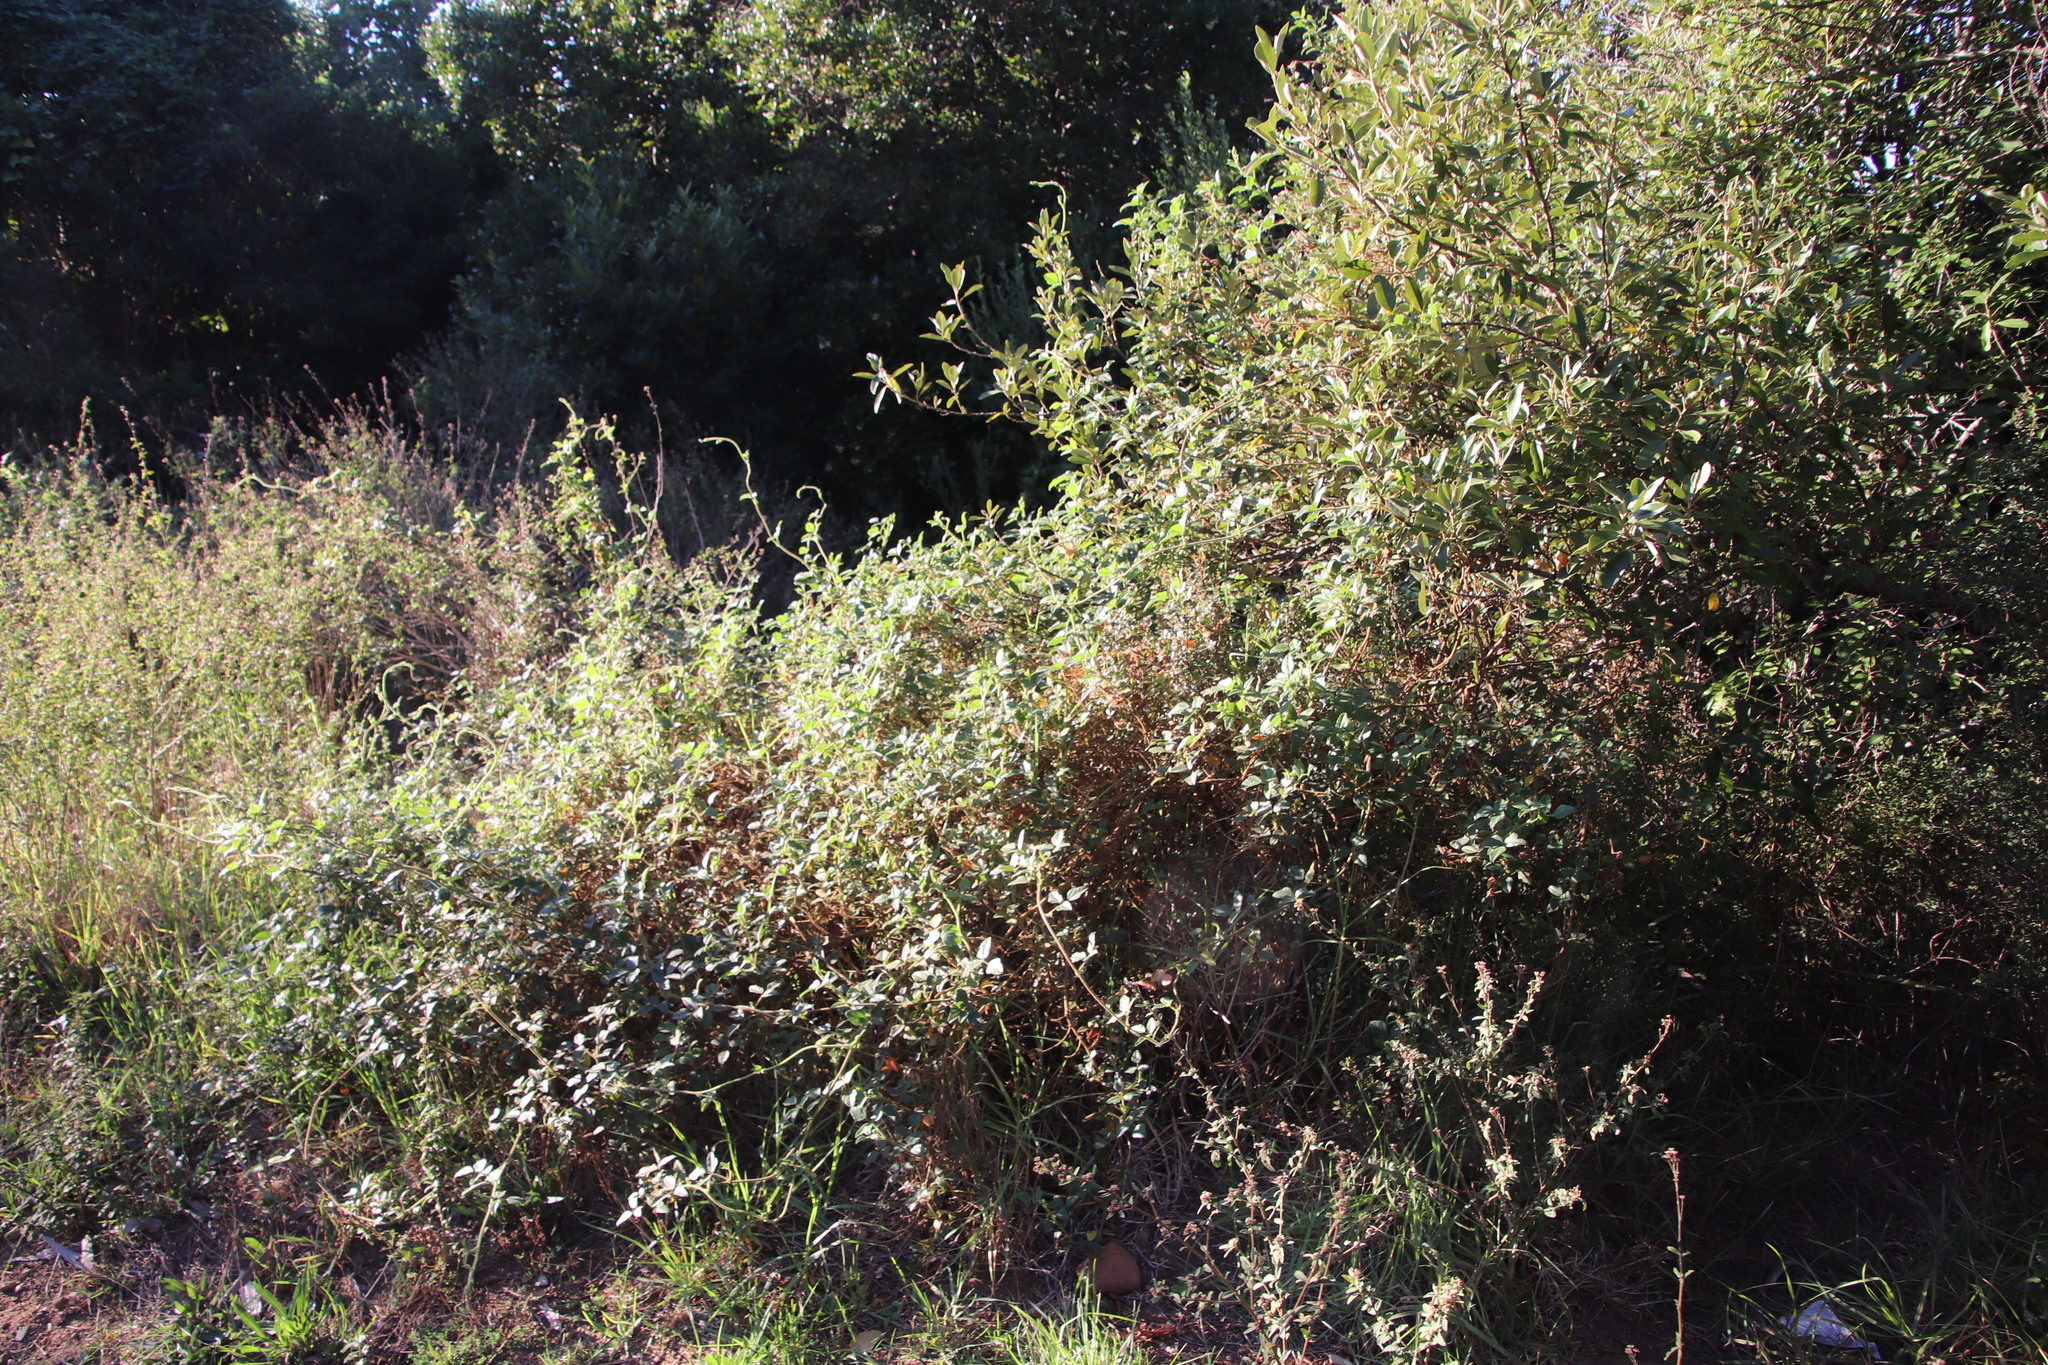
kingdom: Plantae
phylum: Tracheophyta
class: Magnoliopsida
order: Fabales
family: Fabaceae
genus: Bolusafra
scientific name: Bolusafra bituminosa
